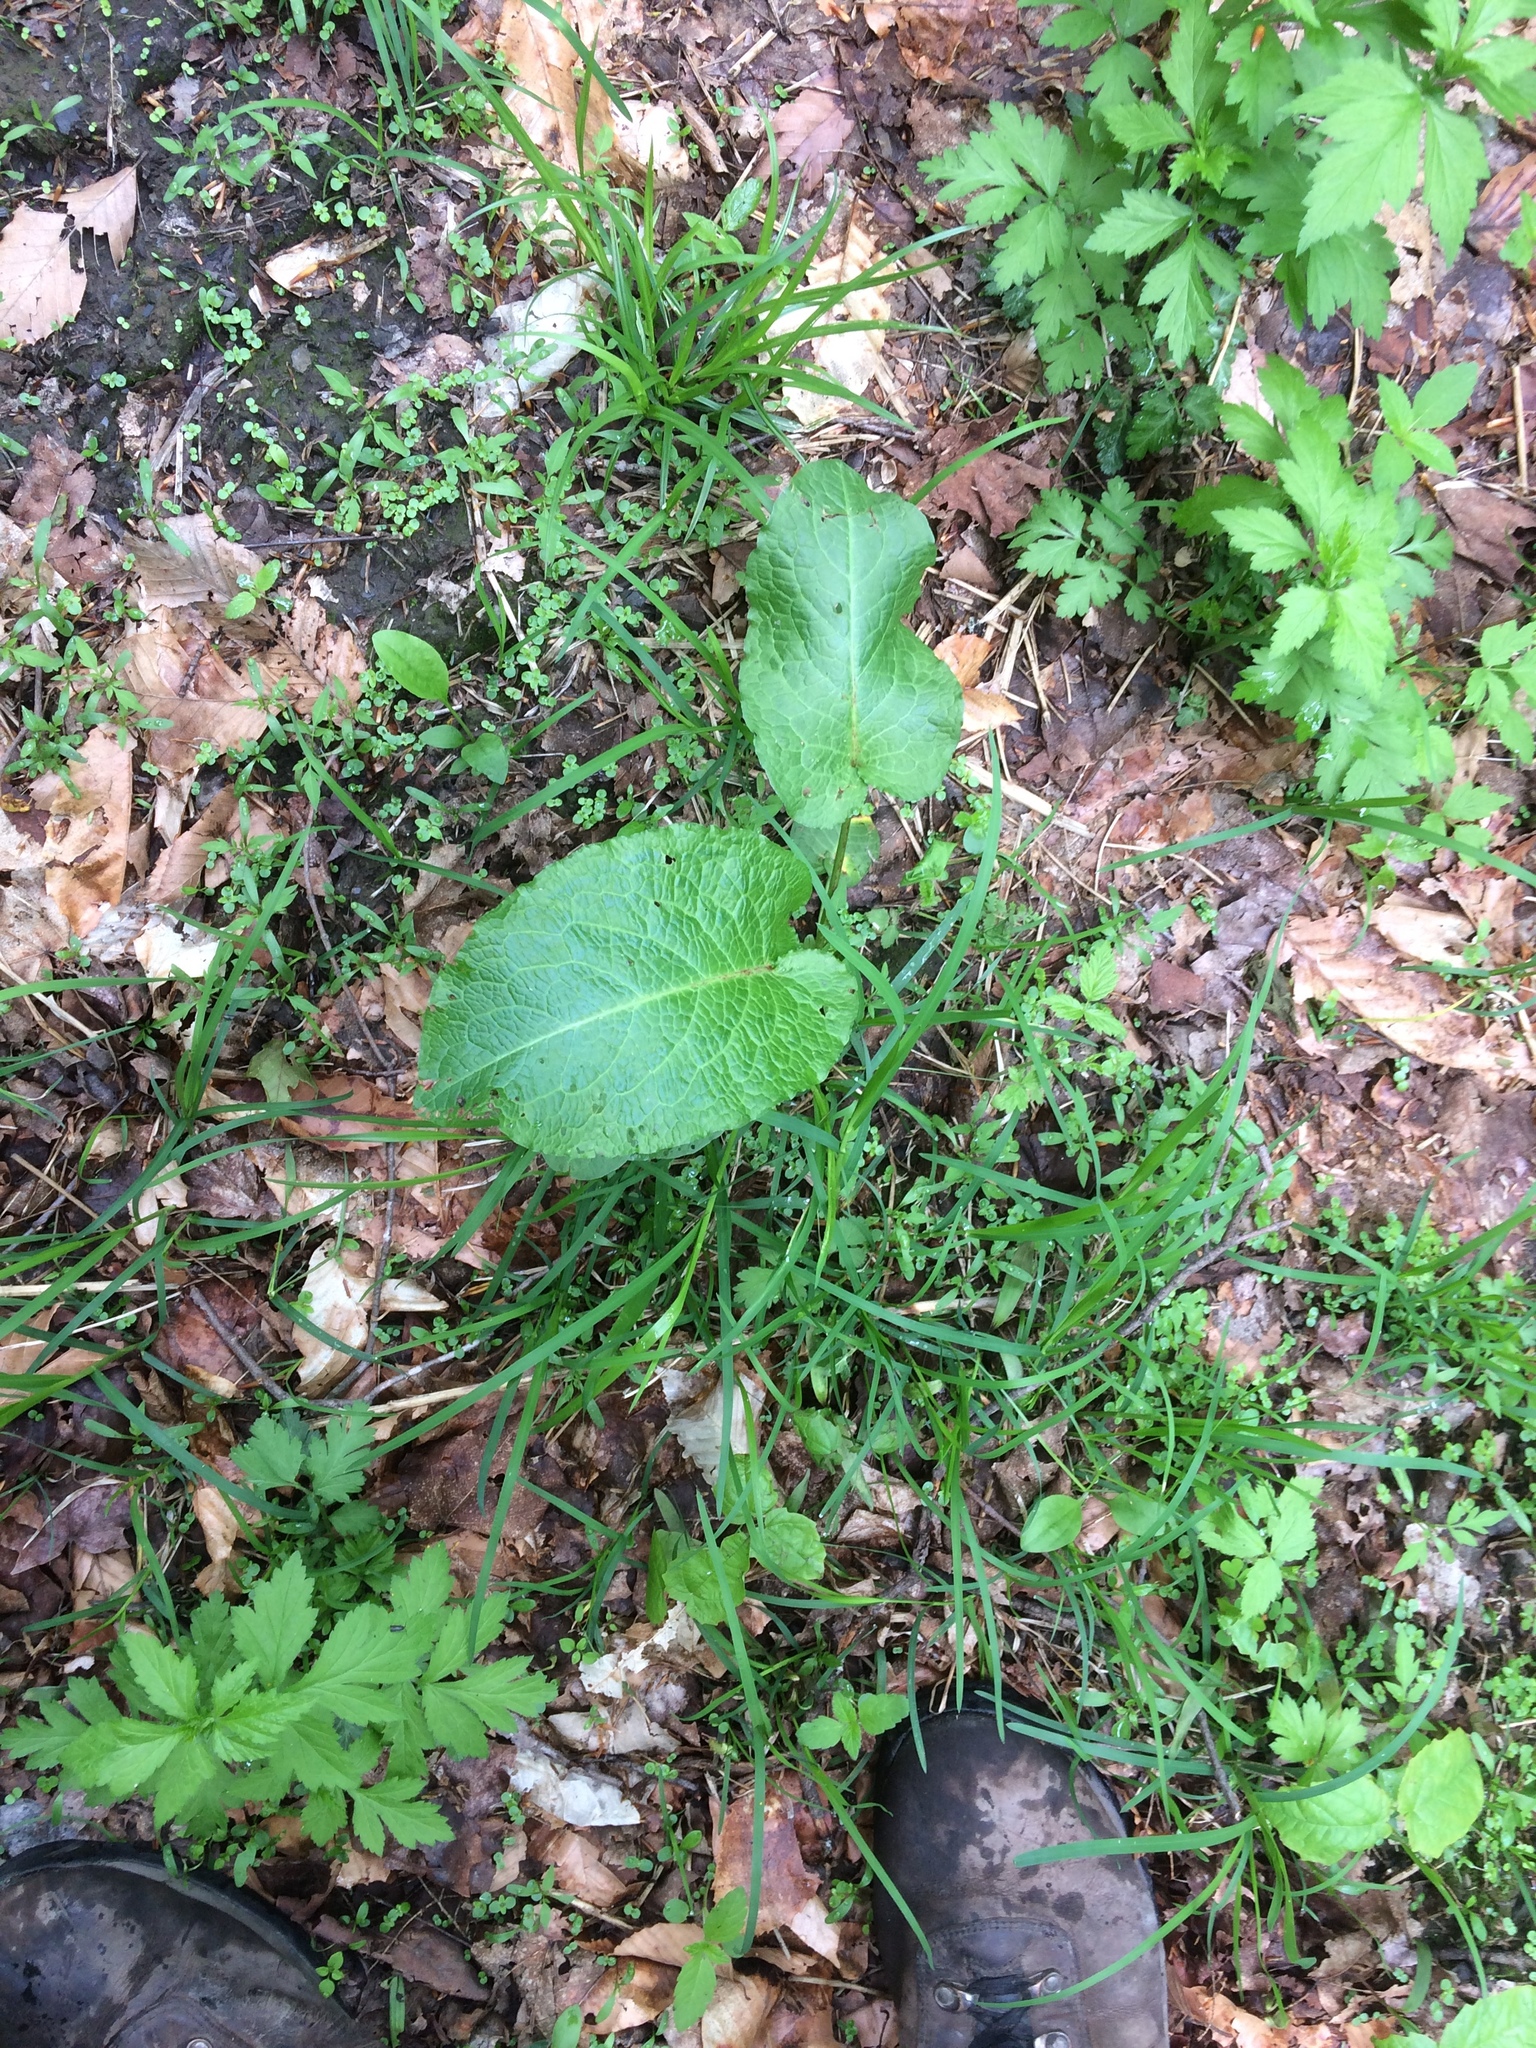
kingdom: Plantae
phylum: Tracheophyta
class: Magnoliopsida
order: Caryophyllales
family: Polygonaceae
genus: Rumex
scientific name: Rumex obtusifolius
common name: Bitter dock
